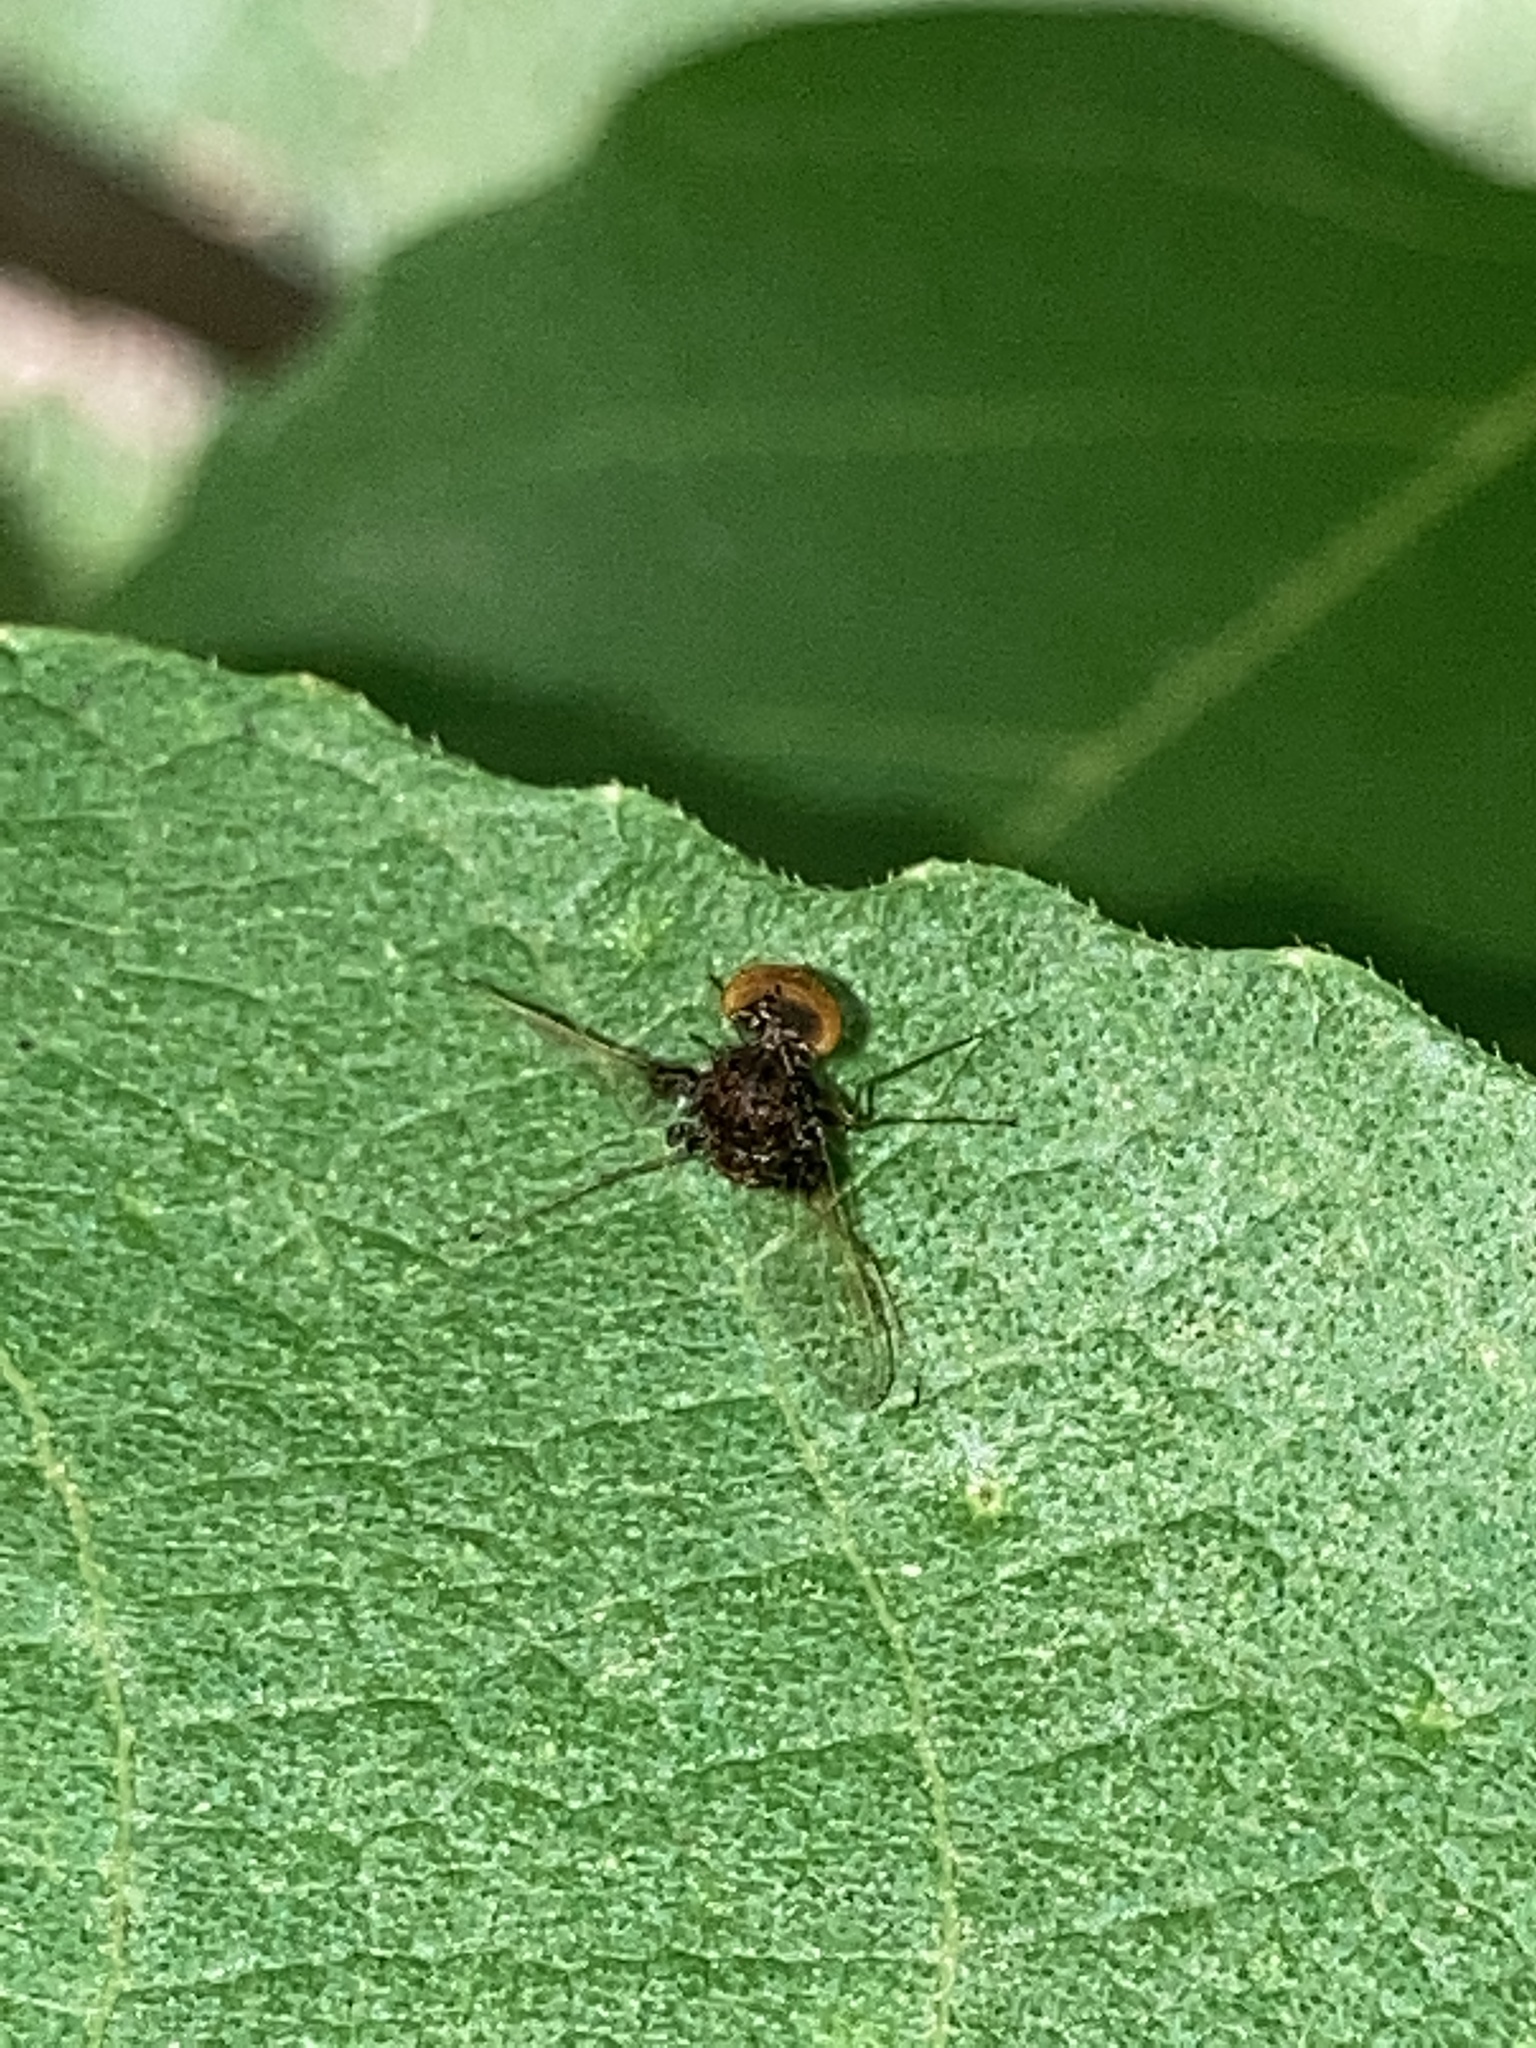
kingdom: Animalia
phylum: Arthropoda
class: Insecta
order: Diptera
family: Rhagionidae
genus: Chrysopilus
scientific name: Chrysopilus basilaris
